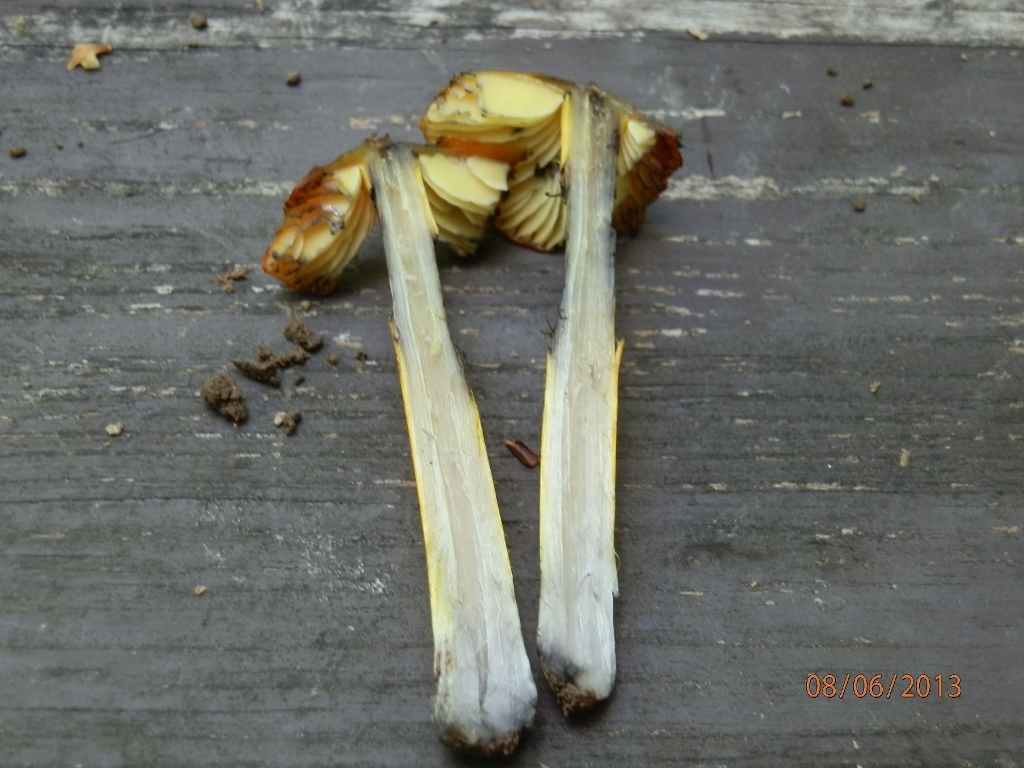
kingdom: Fungi
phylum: Basidiomycota
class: Agaricomycetes
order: Agaricales
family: Hygrophoraceae
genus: Hygrocybe
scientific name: Hygrocybe conica
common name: Blackening wax-cap
